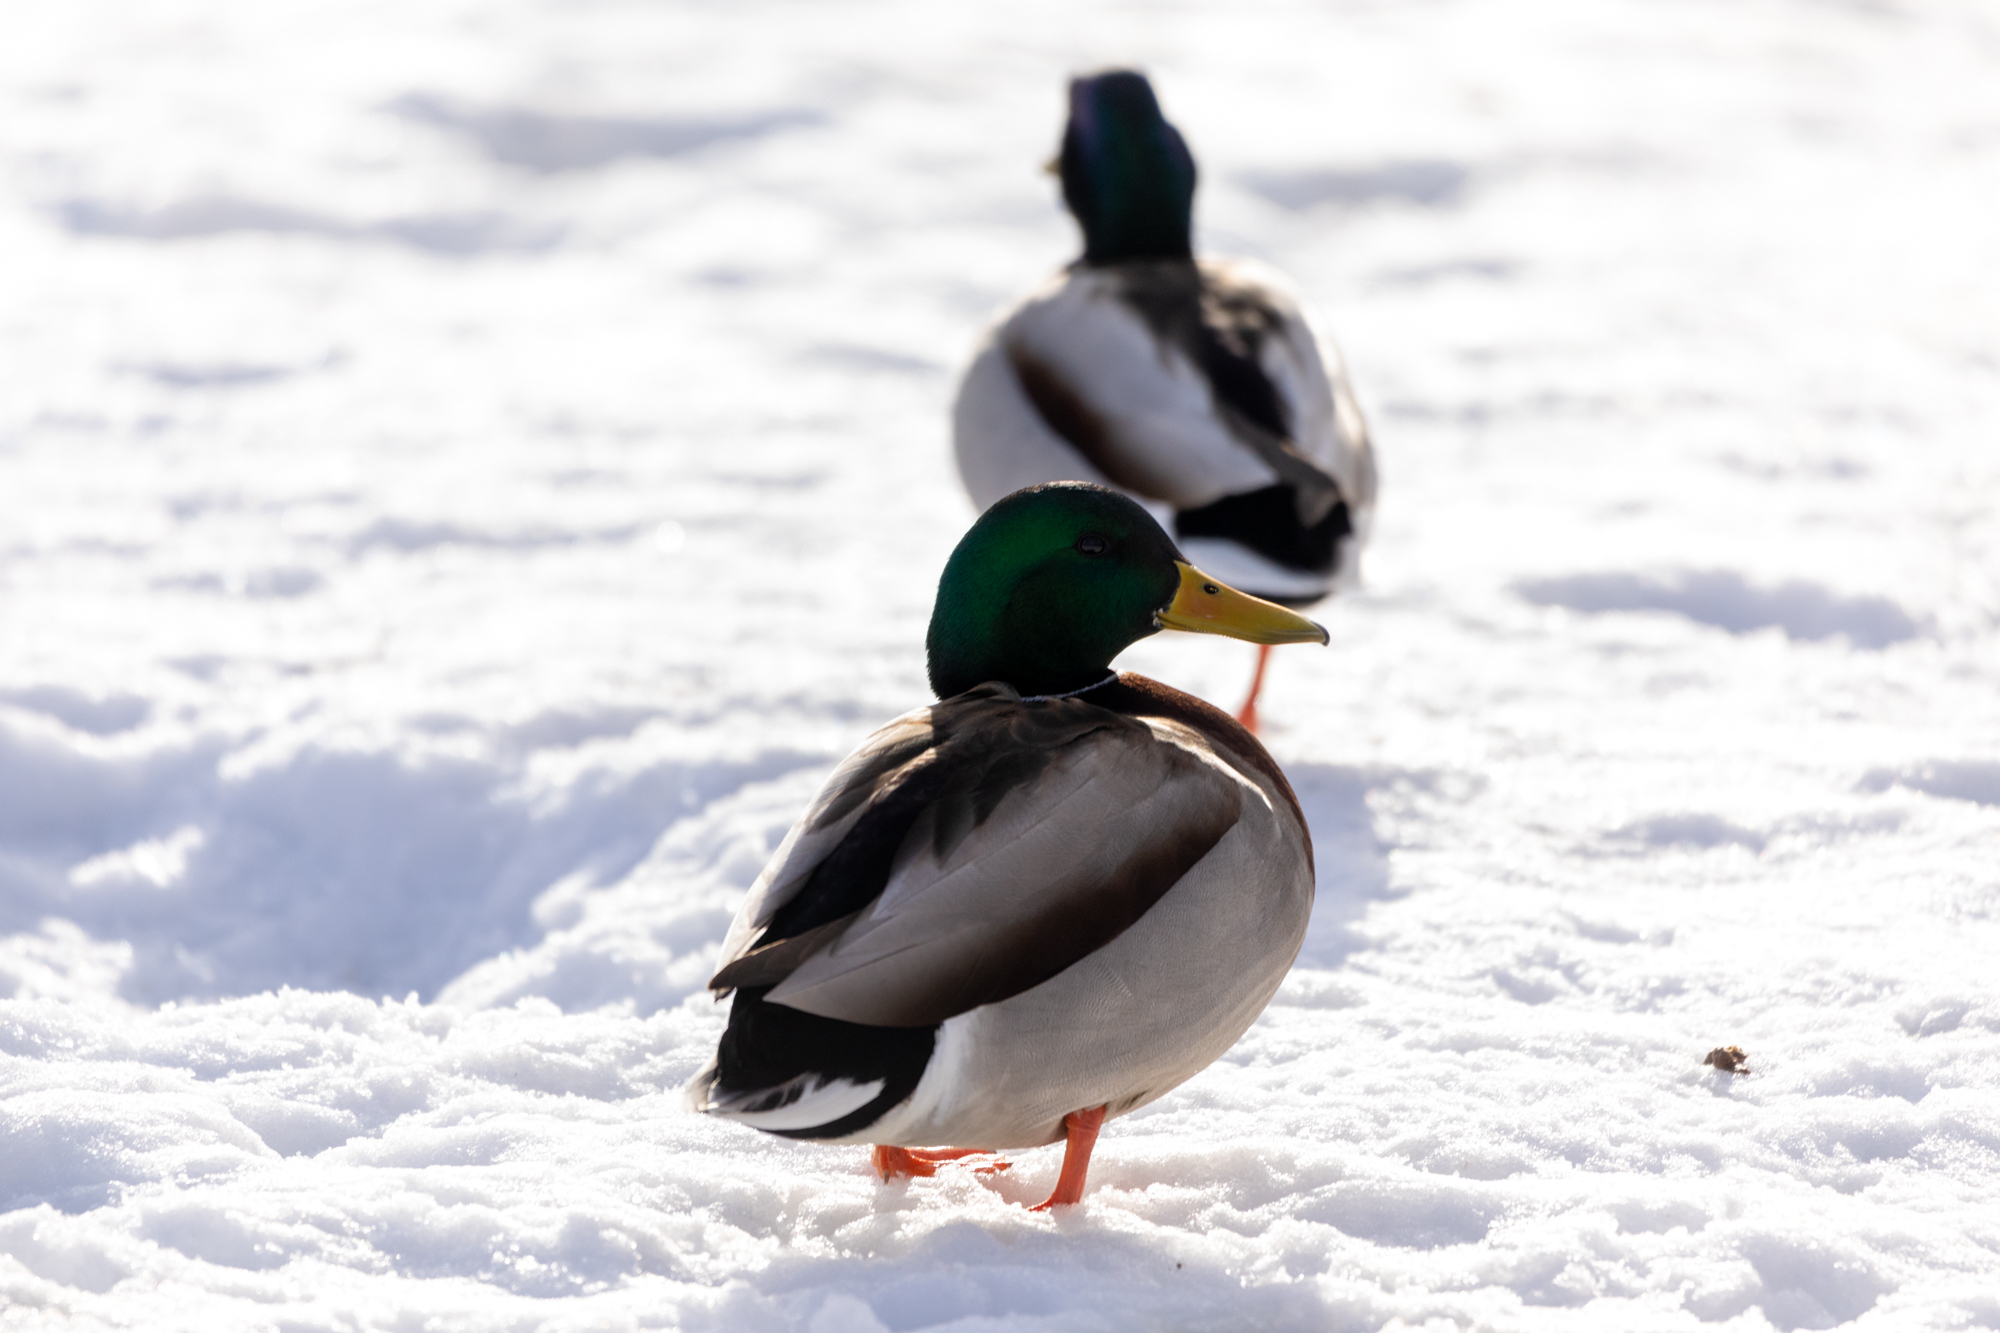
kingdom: Animalia
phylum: Chordata
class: Aves
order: Anseriformes
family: Anatidae
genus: Anas
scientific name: Anas platyrhynchos
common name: Mallard
